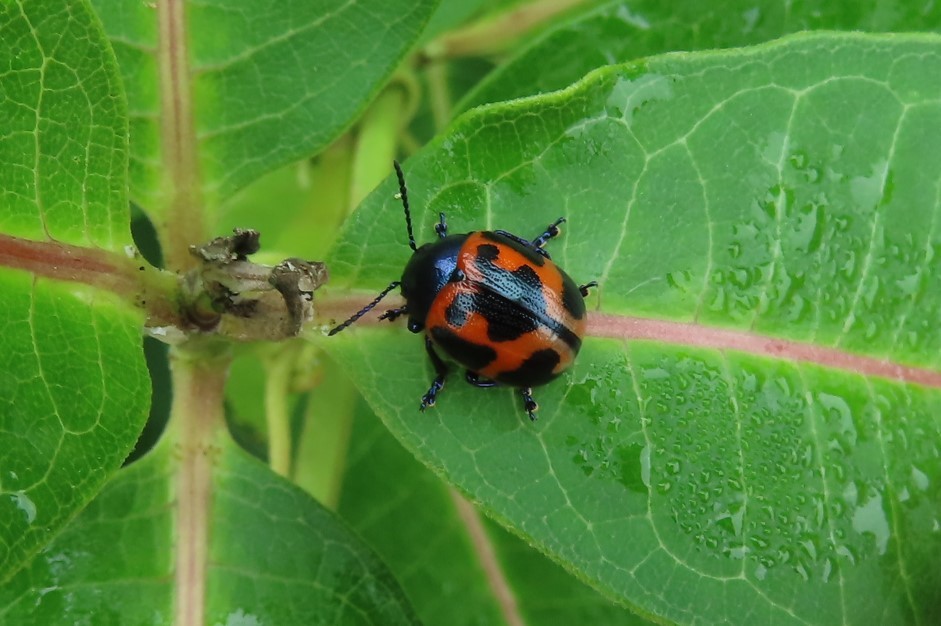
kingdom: Animalia
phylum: Arthropoda
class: Insecta
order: Coleoptera
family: Chrysomelidae
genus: Labidomera
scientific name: Labidomera clivicollis
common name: Swamp milkweed leaf beetle
